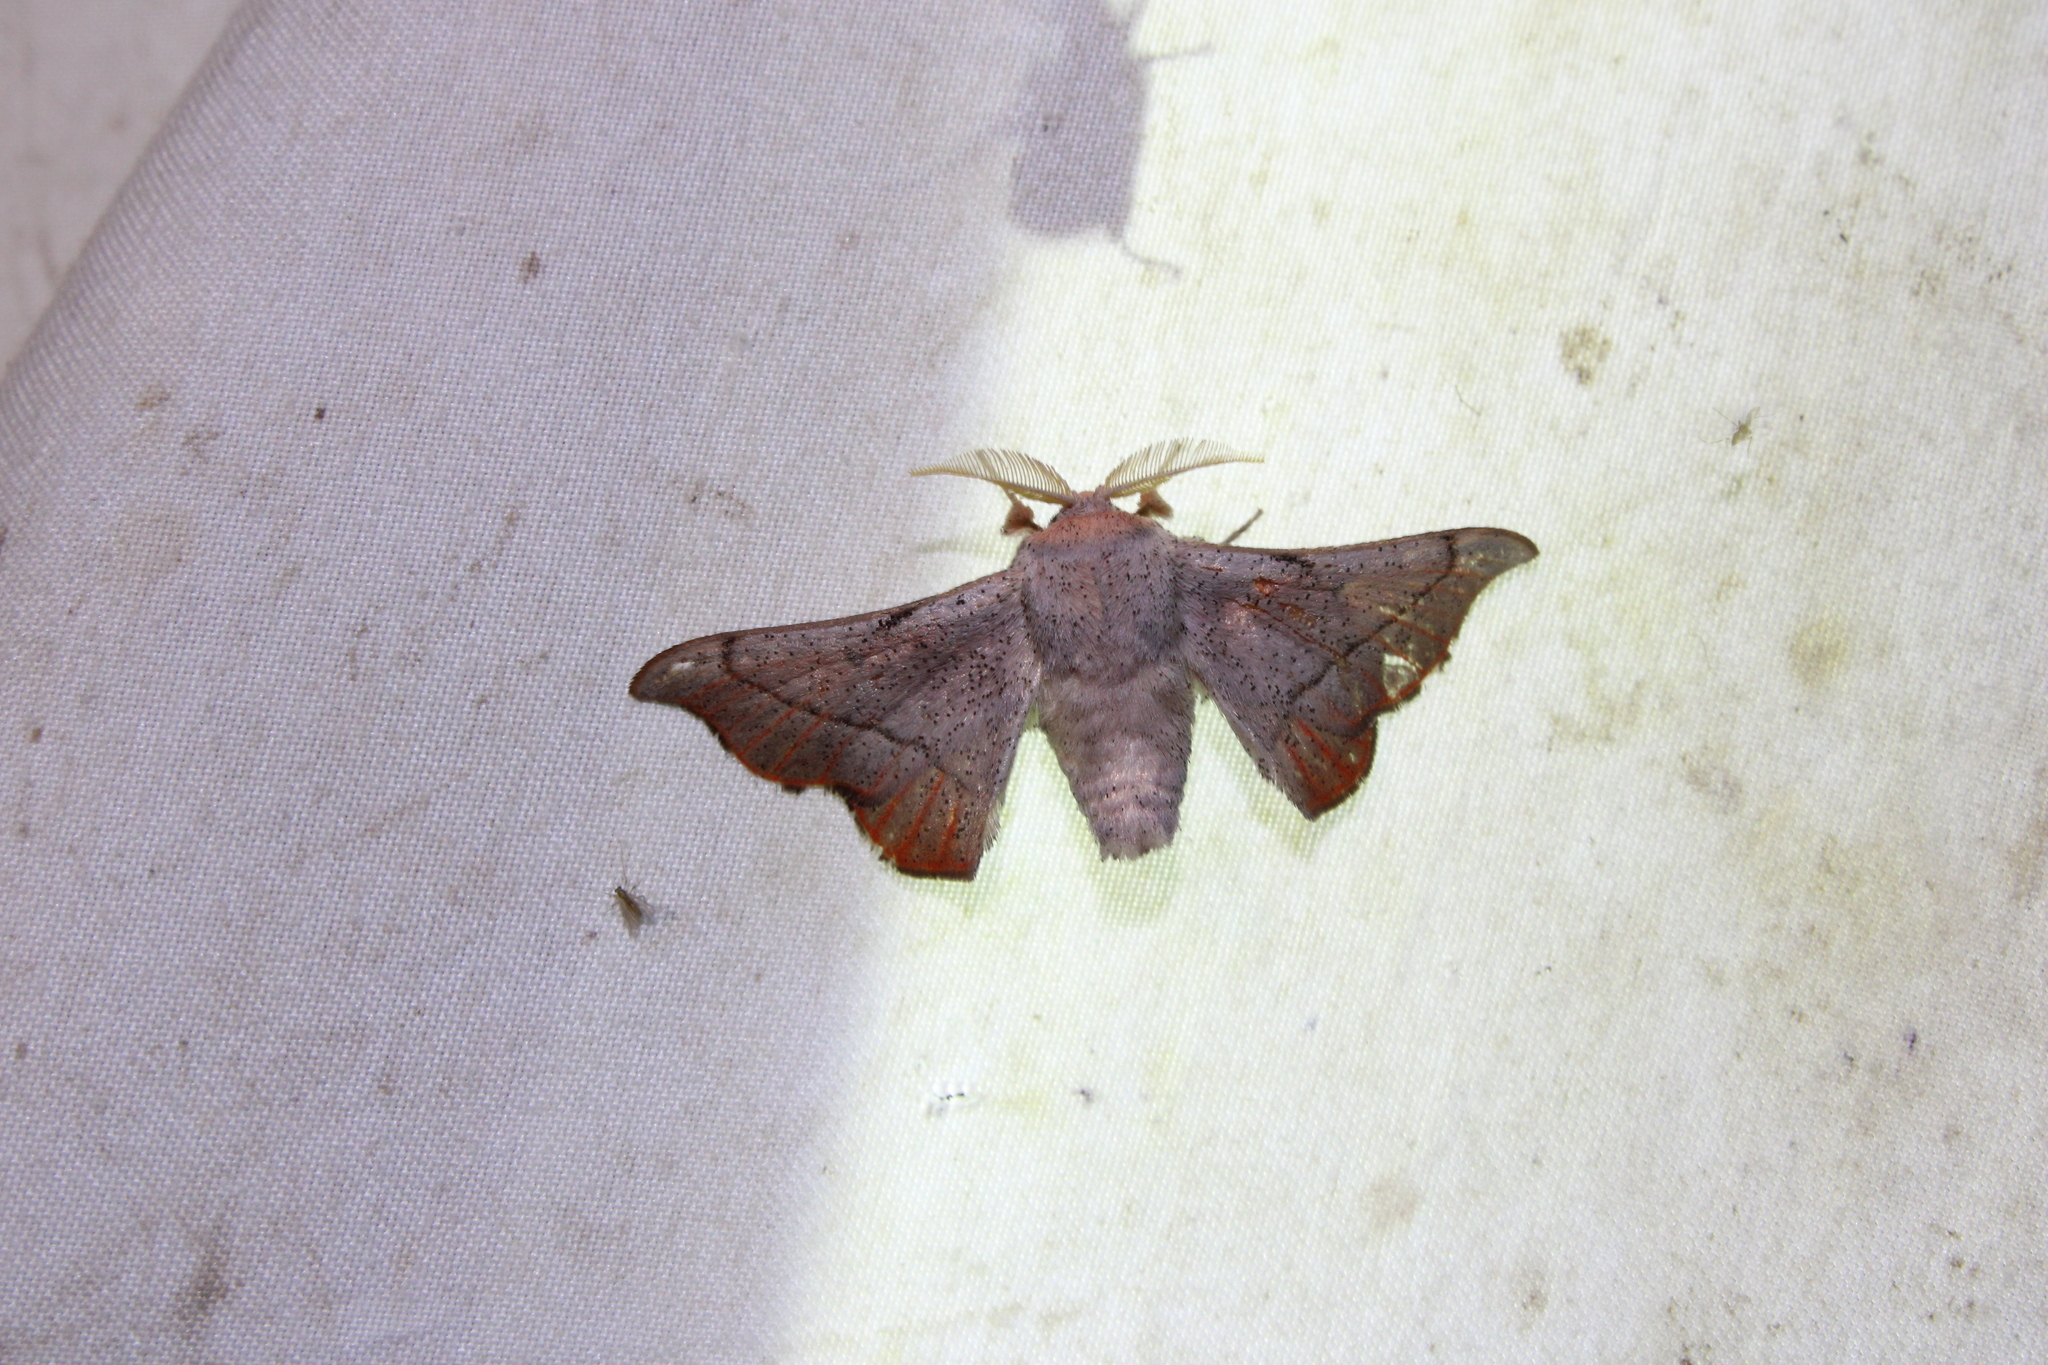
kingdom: Animalia
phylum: Arthropoda
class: Insecta
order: Lepidoptera
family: Mimallonidae
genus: Cicinnus
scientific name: Cicinnus melsheimeri
